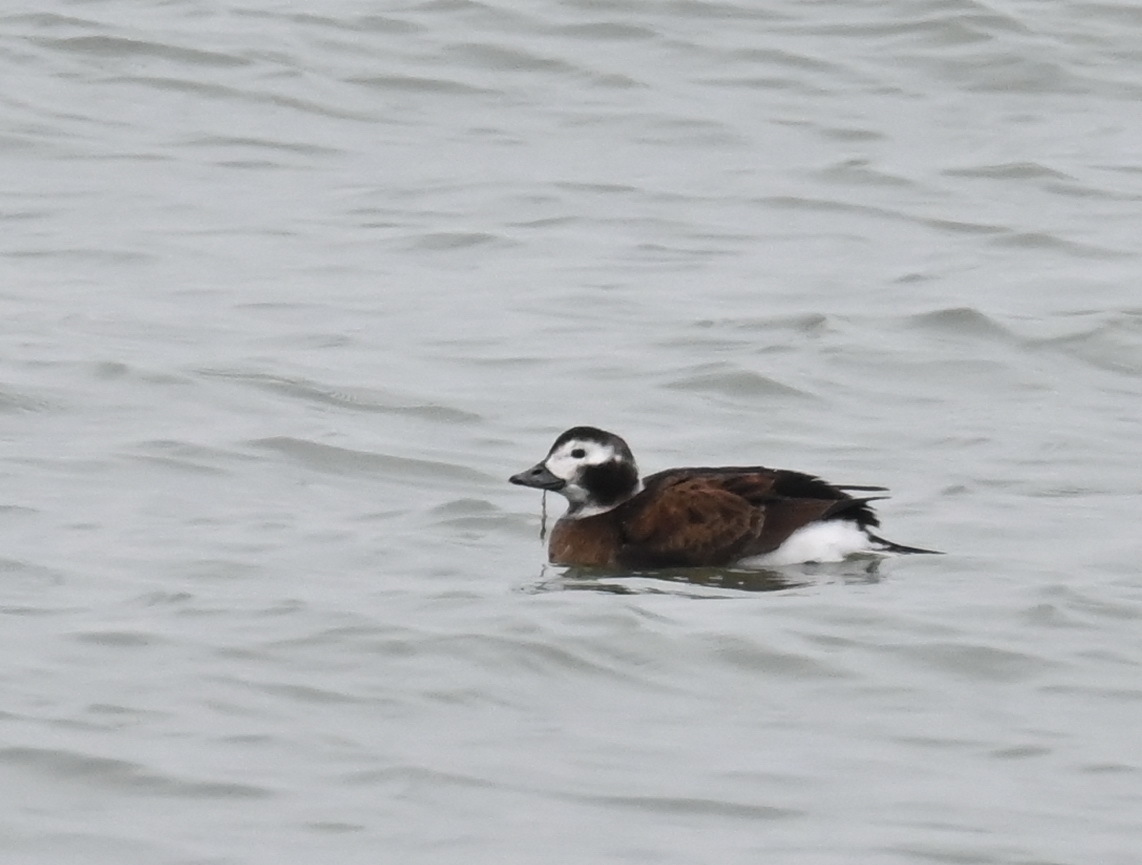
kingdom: Animalia
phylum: Chordata
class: Aves
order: Anseriformes
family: Anatidae
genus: Clangula
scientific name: Clangula hyemalis
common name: Long-tailed duck
